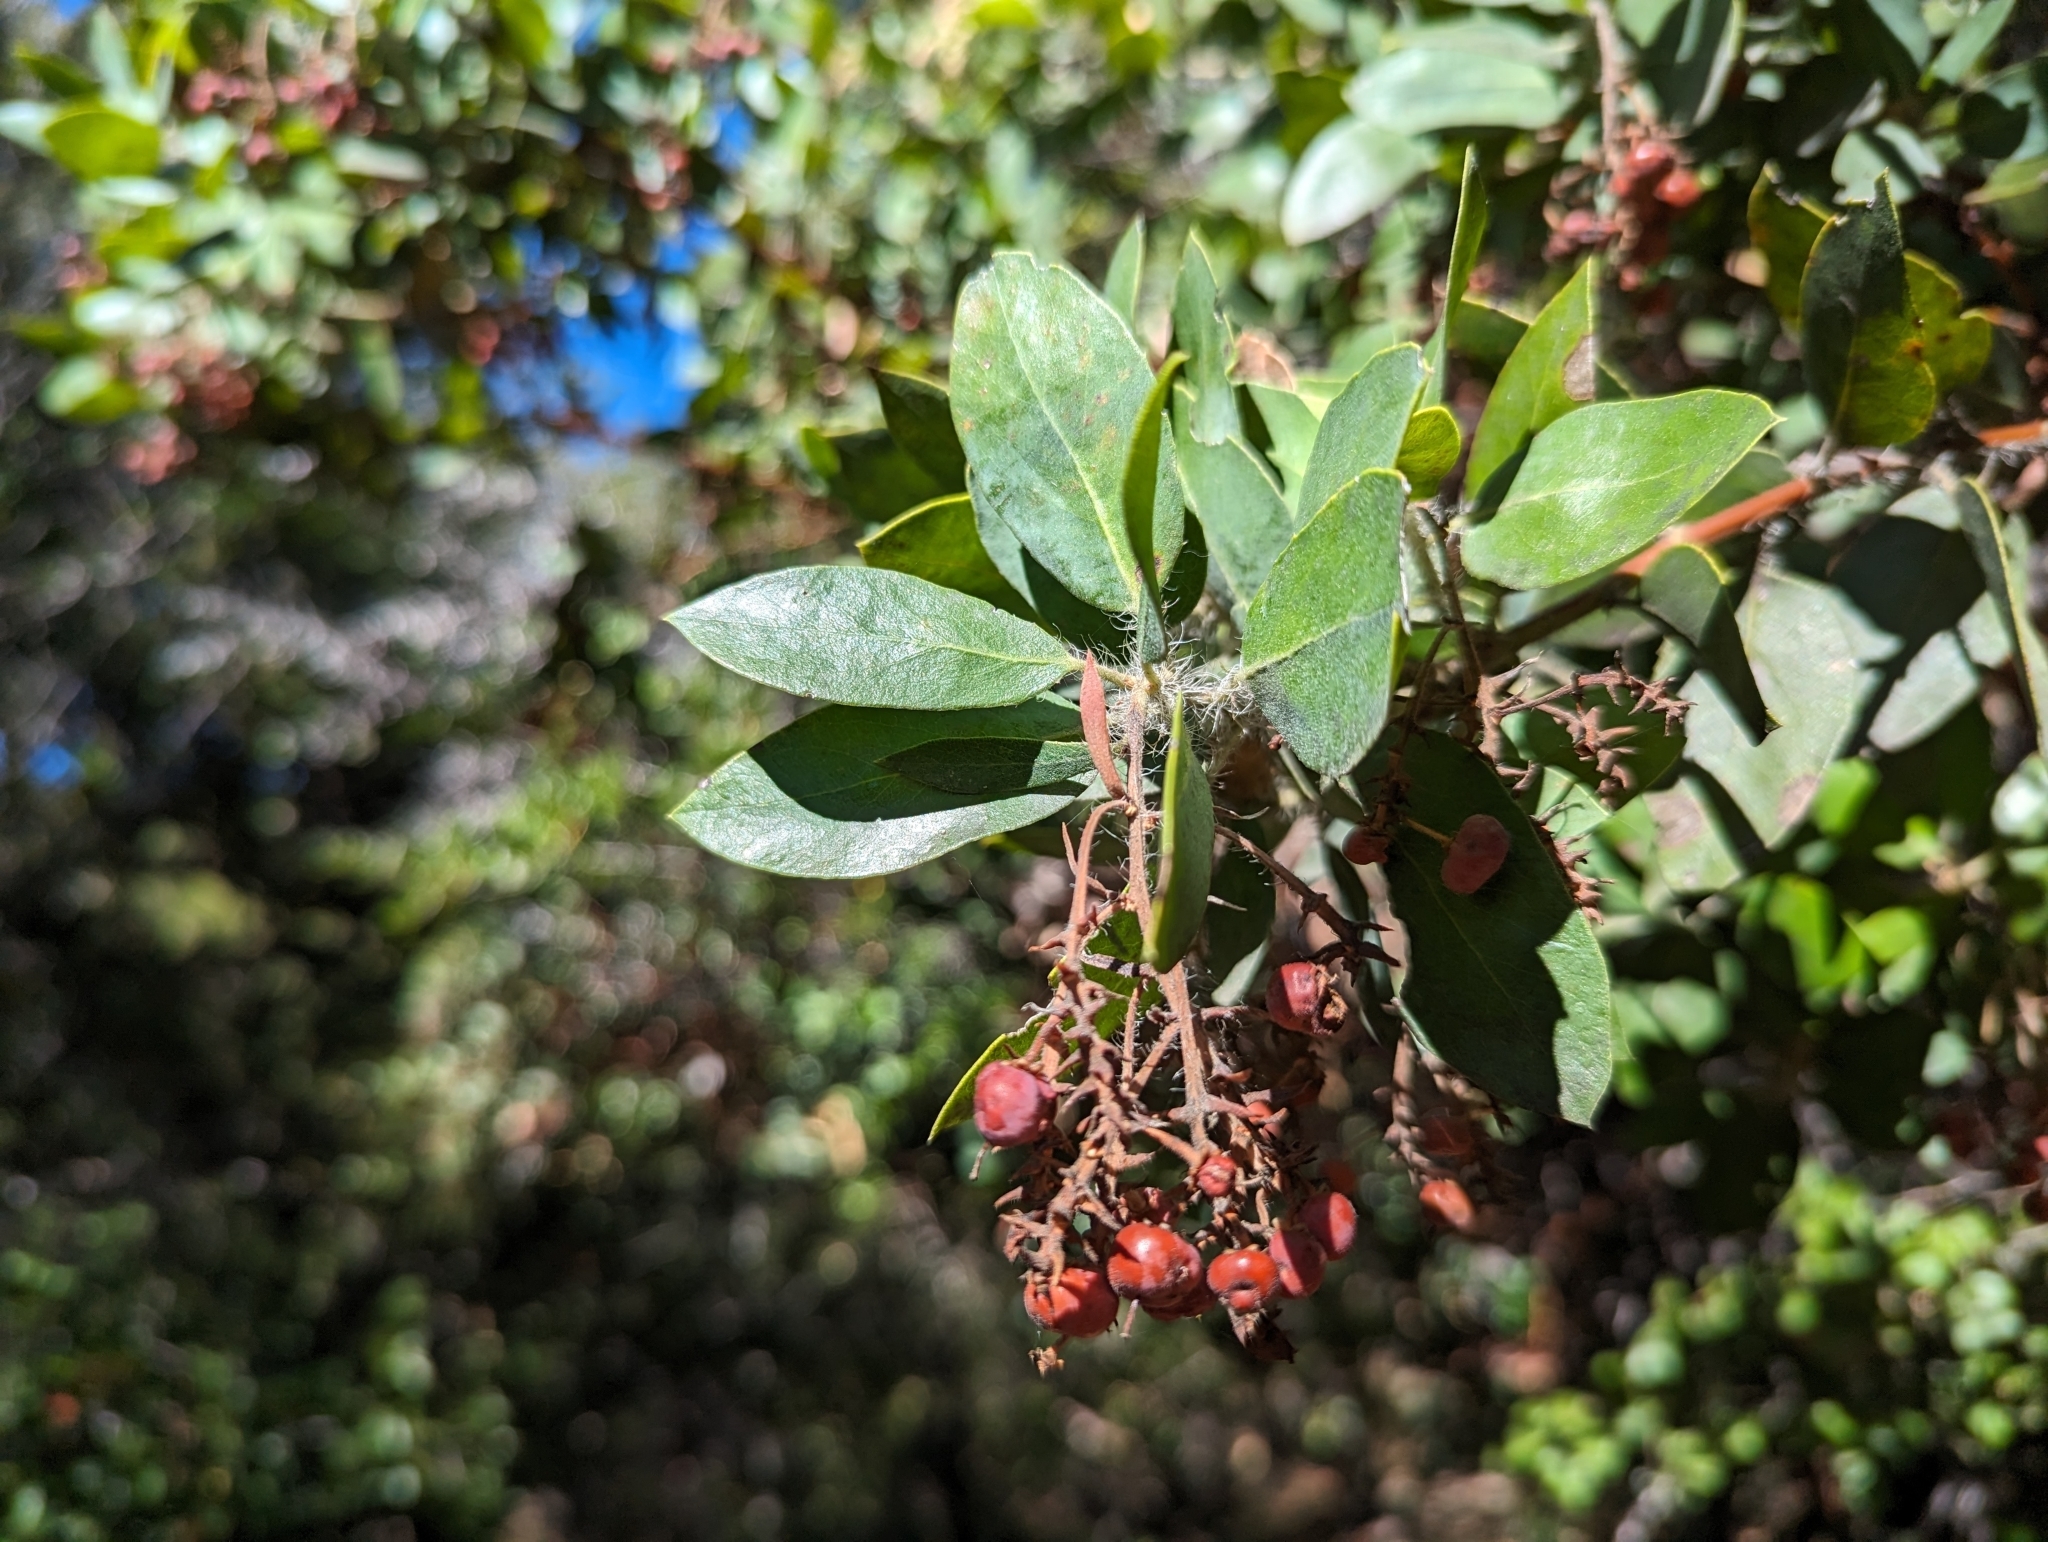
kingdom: Plantae
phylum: Tracheophyta
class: Magnoliopsida
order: Ericales
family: Ericaceae
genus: Arctostaphylos
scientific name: Arctostaphylos crustacea
